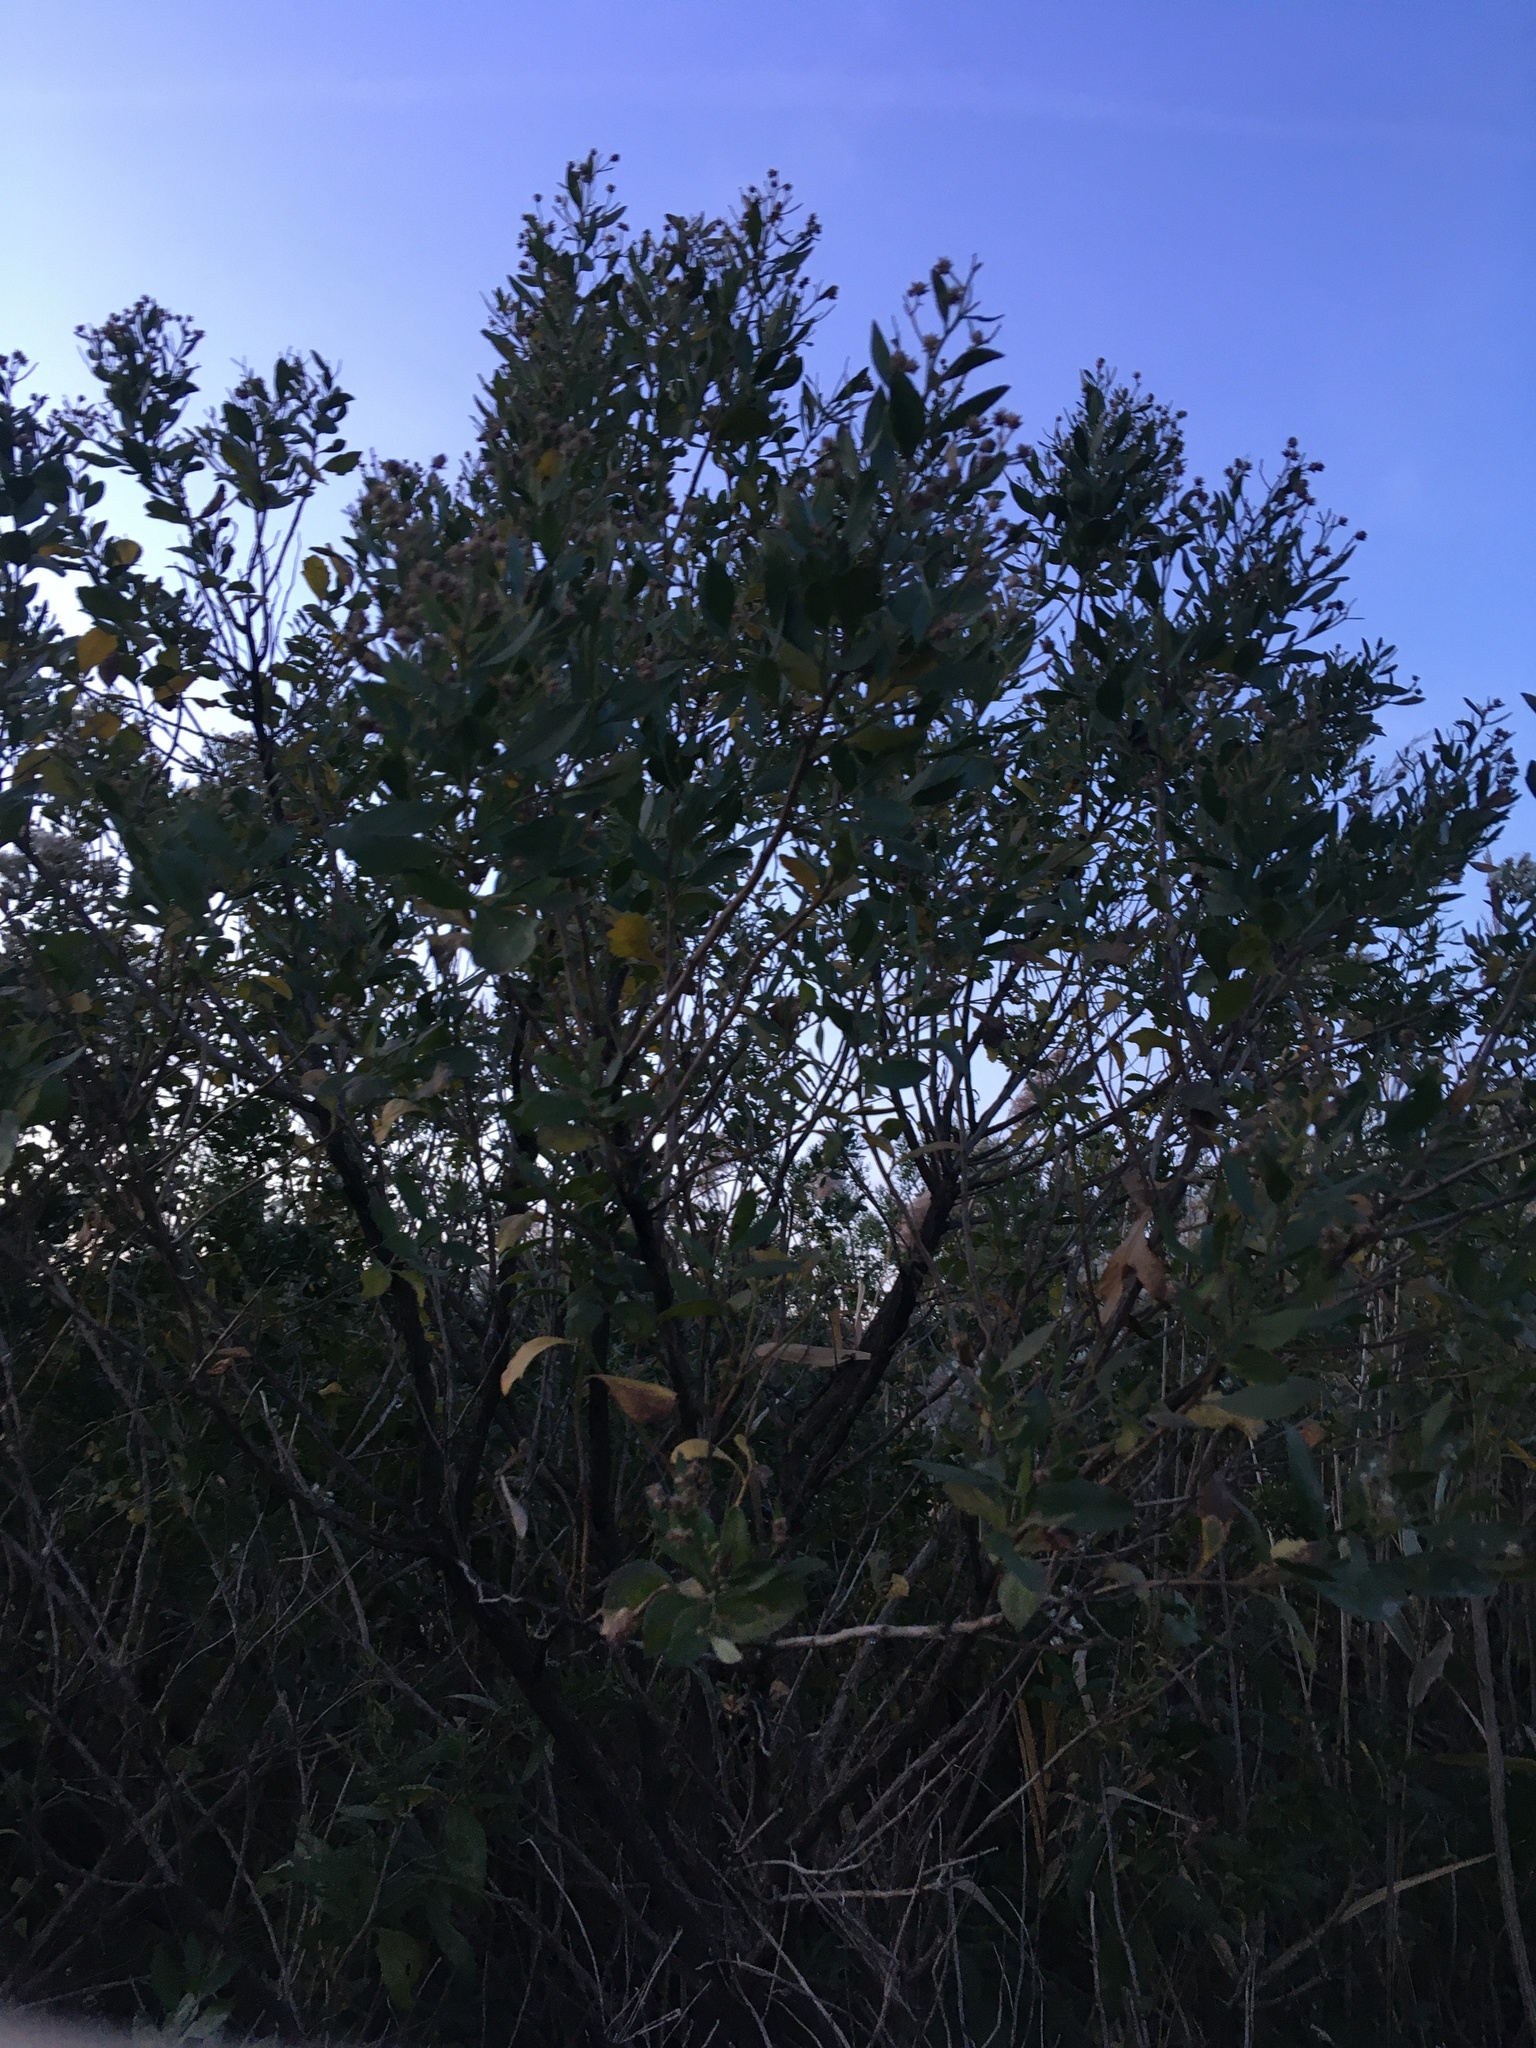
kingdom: Plantae
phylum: Tracheophyta
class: Magnoliopsida
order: Asterales
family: Asteraceae
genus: Baccharis
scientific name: Baccharis halimifolia
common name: Eastern baccharis
